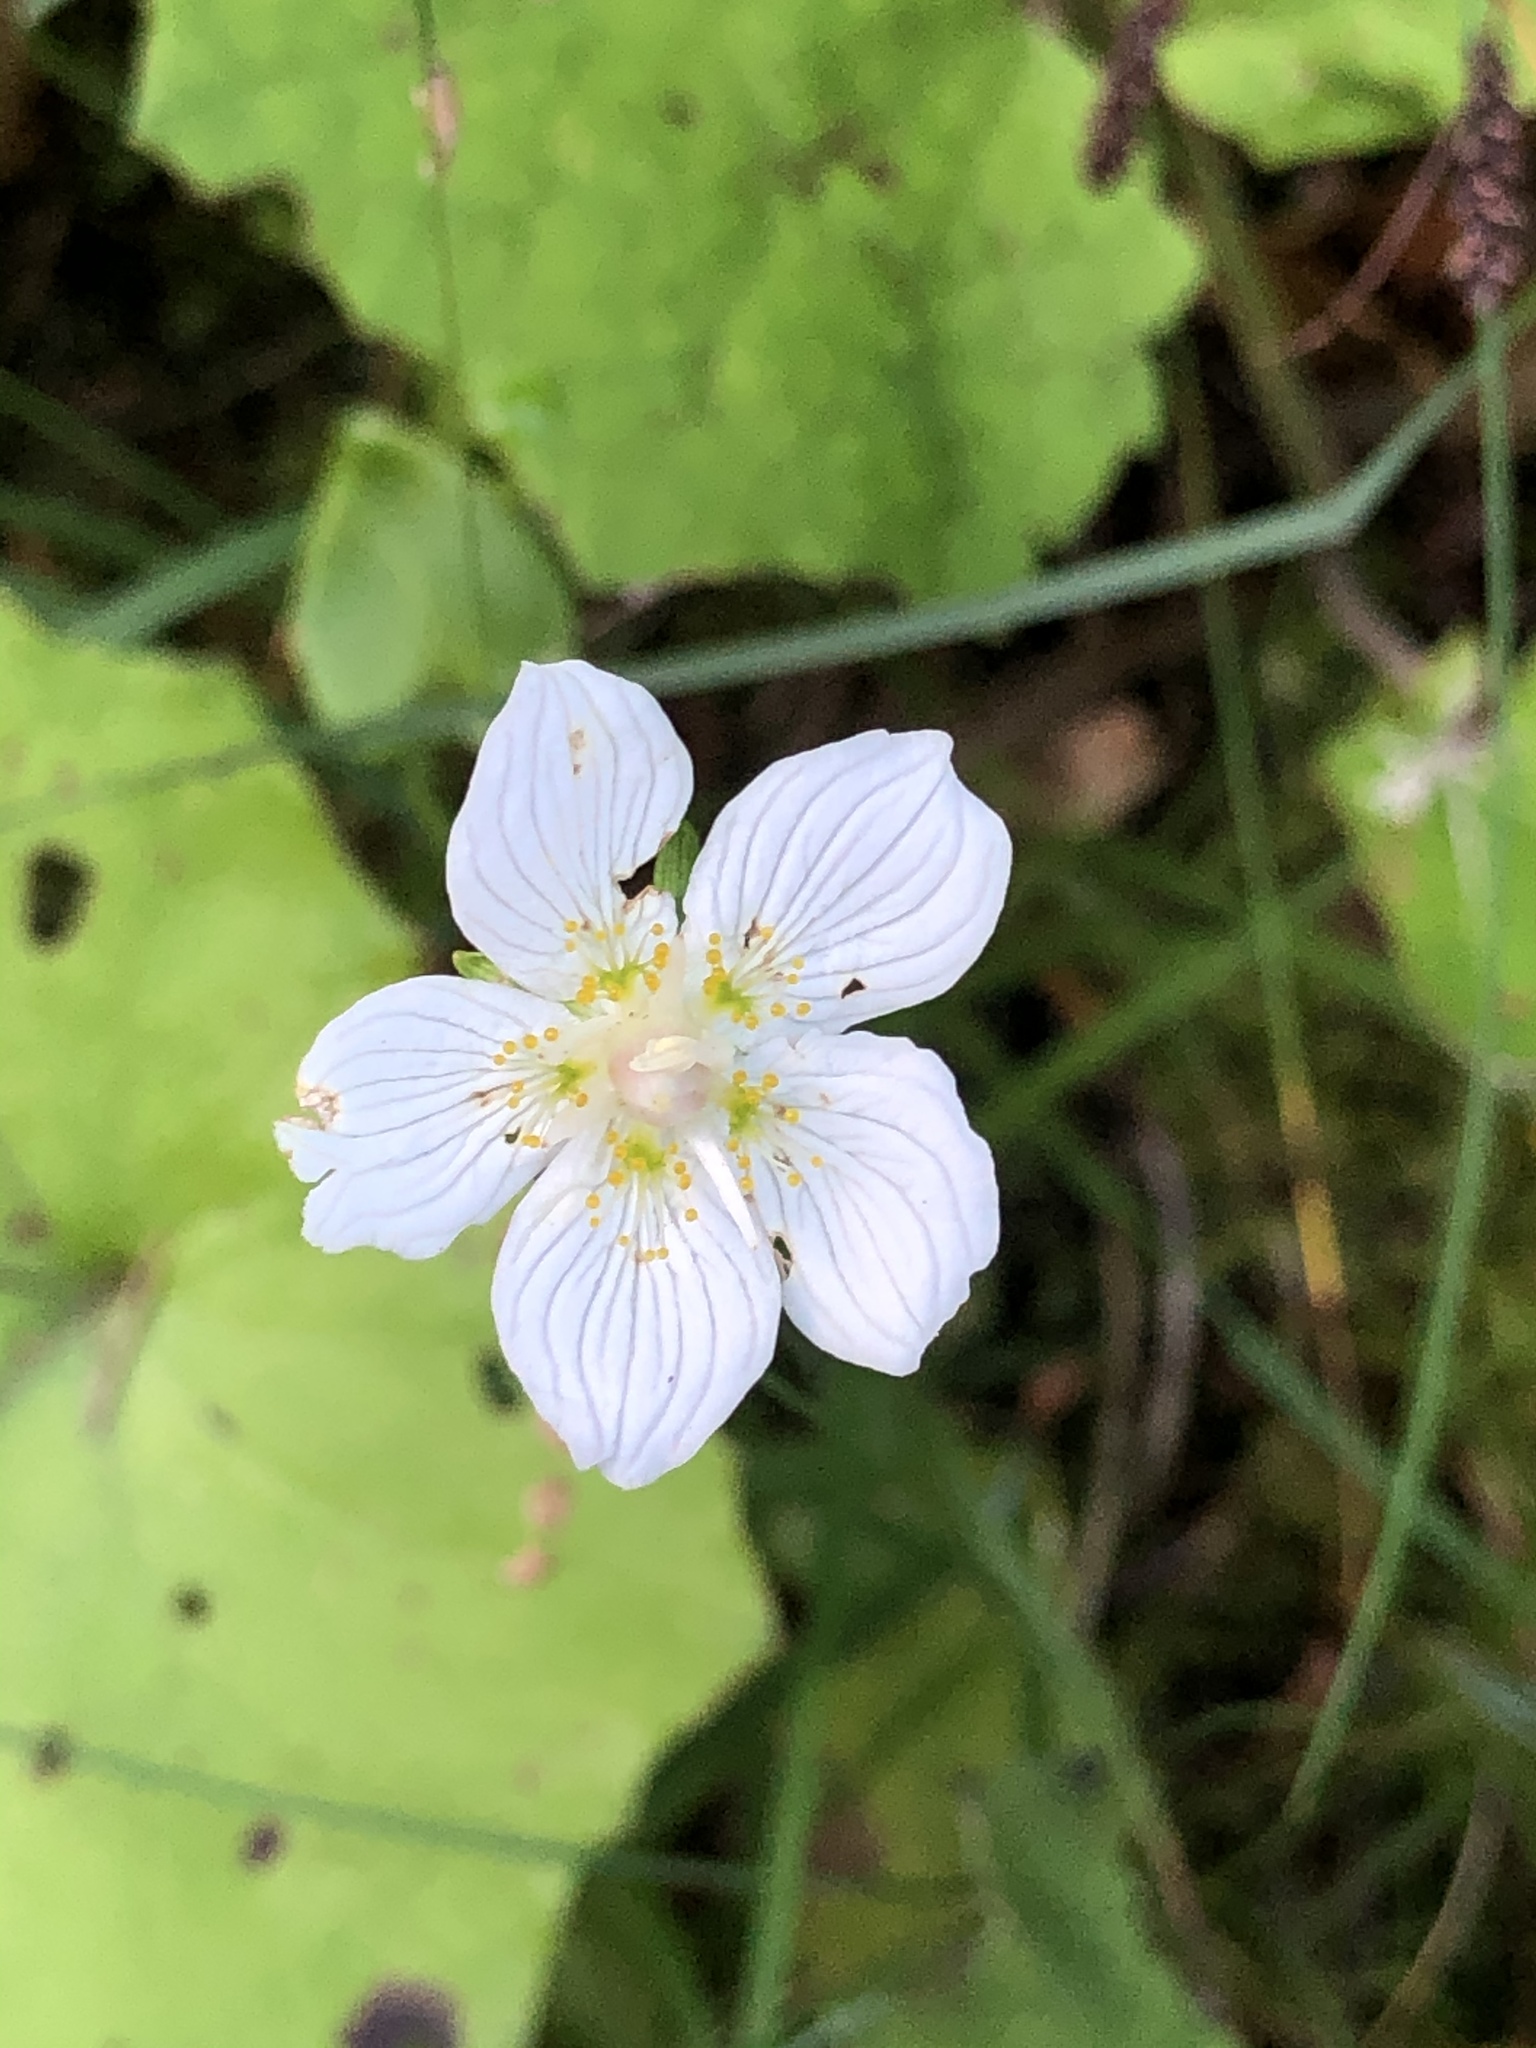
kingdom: Plantae
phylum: Tracheophyta
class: Magnoliopsida
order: Celastrales
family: Parnassiaceae
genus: Parnassia
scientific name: Parnassia palustris
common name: Grass-of-parnassus
